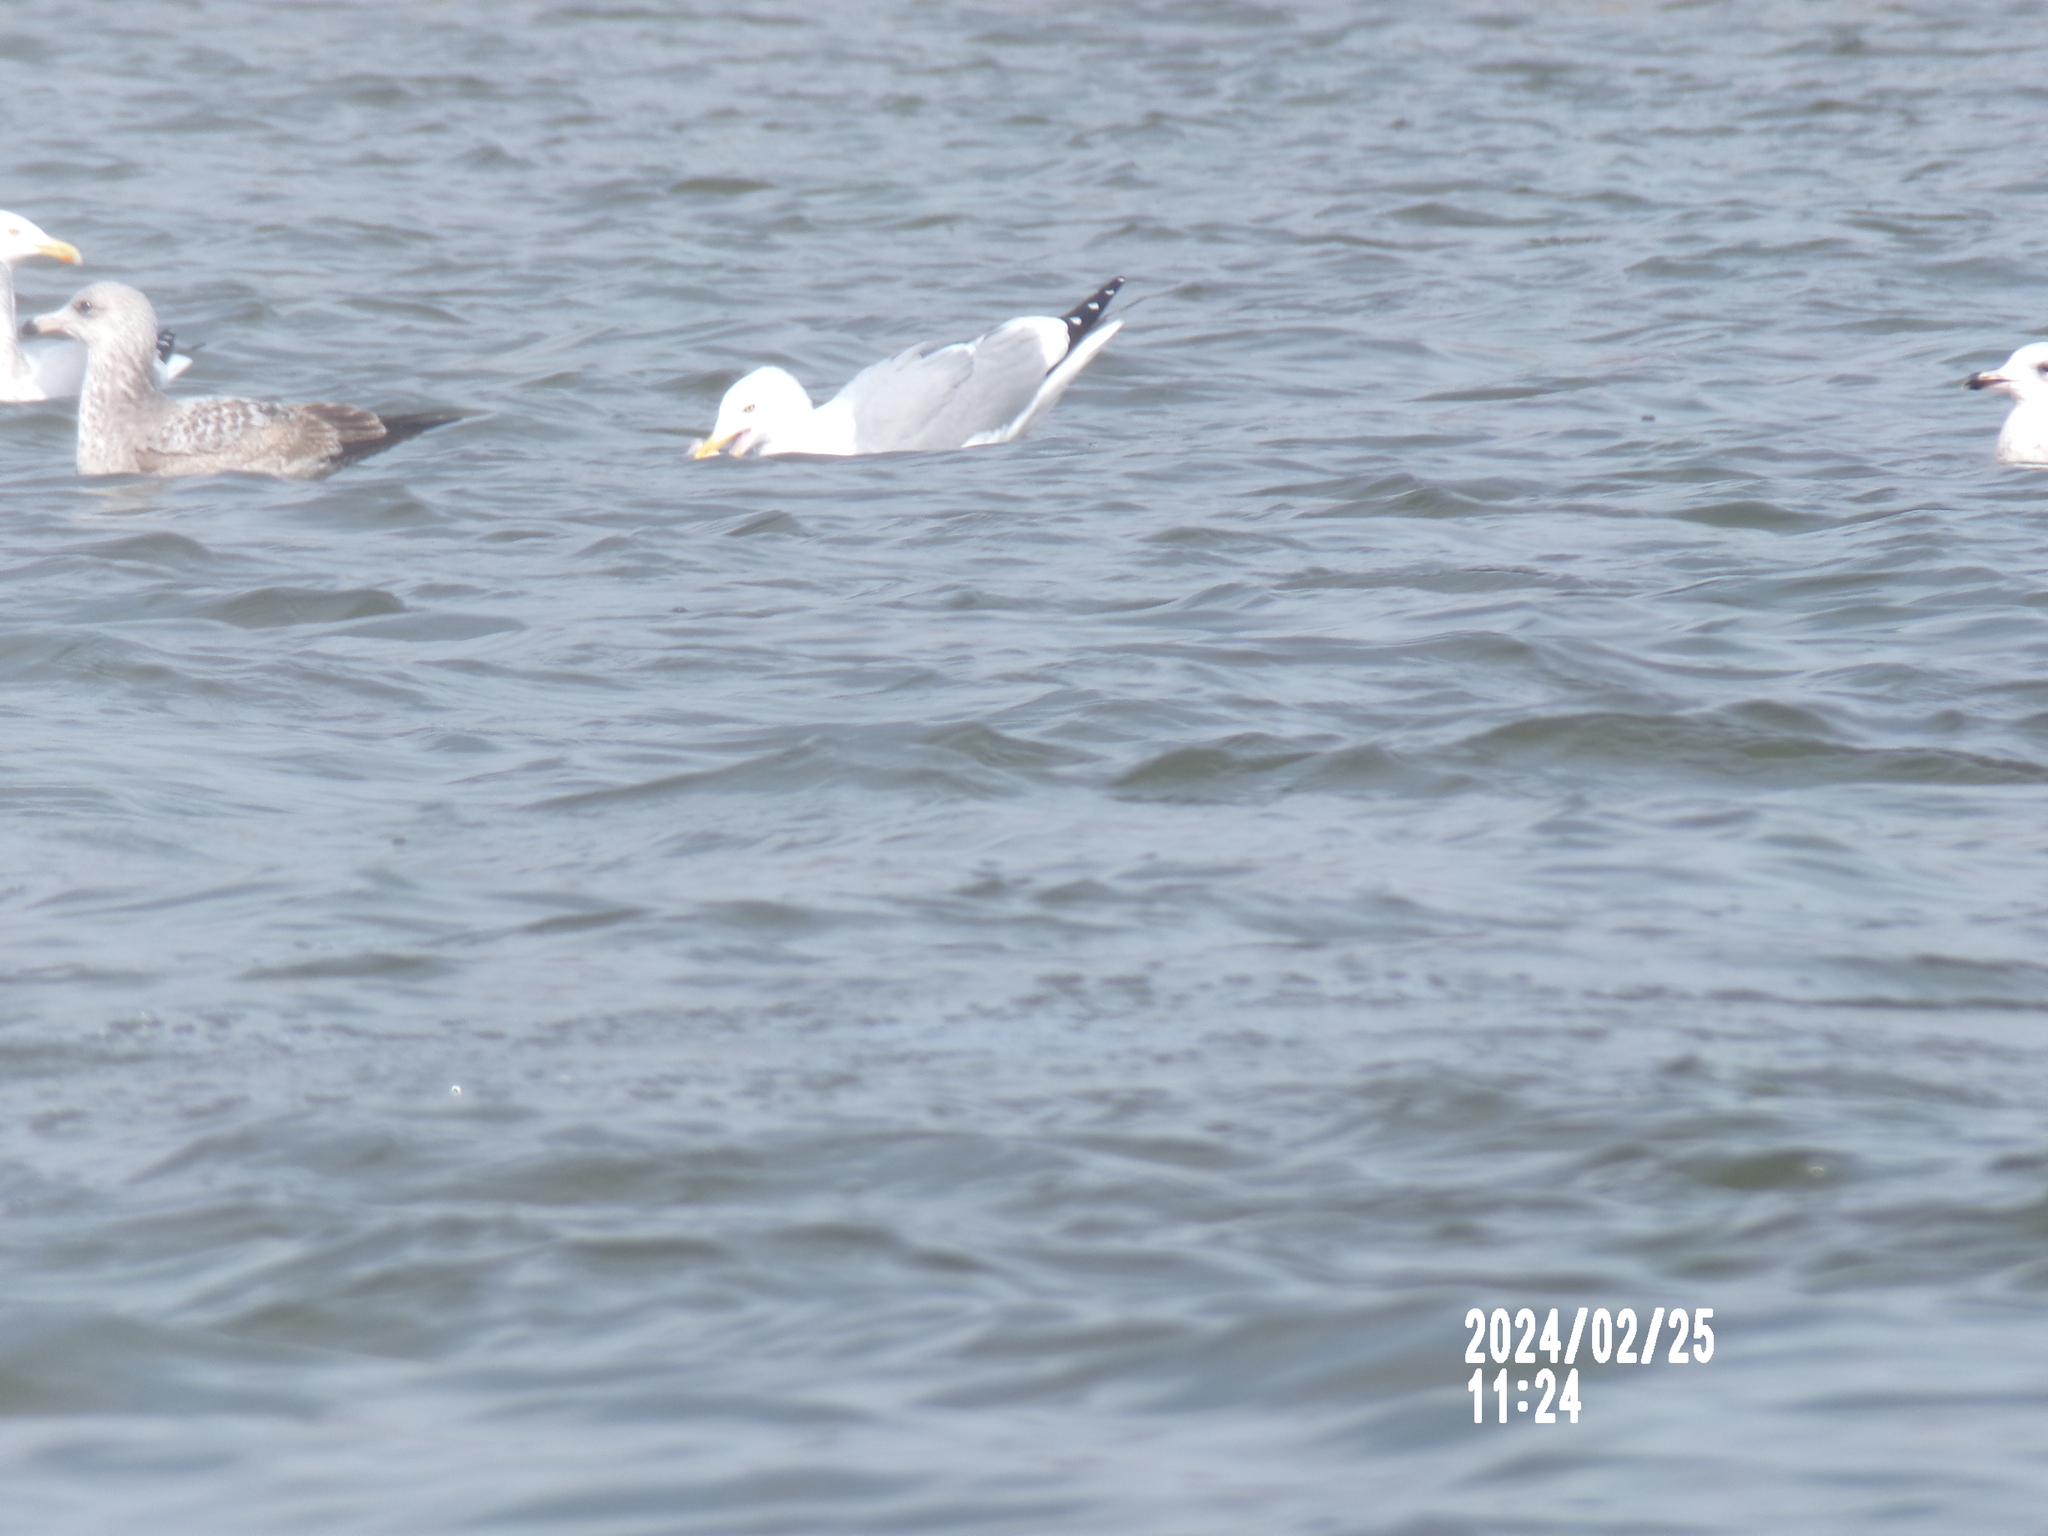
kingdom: Animalia
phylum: Chordata
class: Aves
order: Charadriiformes
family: Laridae
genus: Larus
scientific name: Larus smithsonianus
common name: American herring gull
